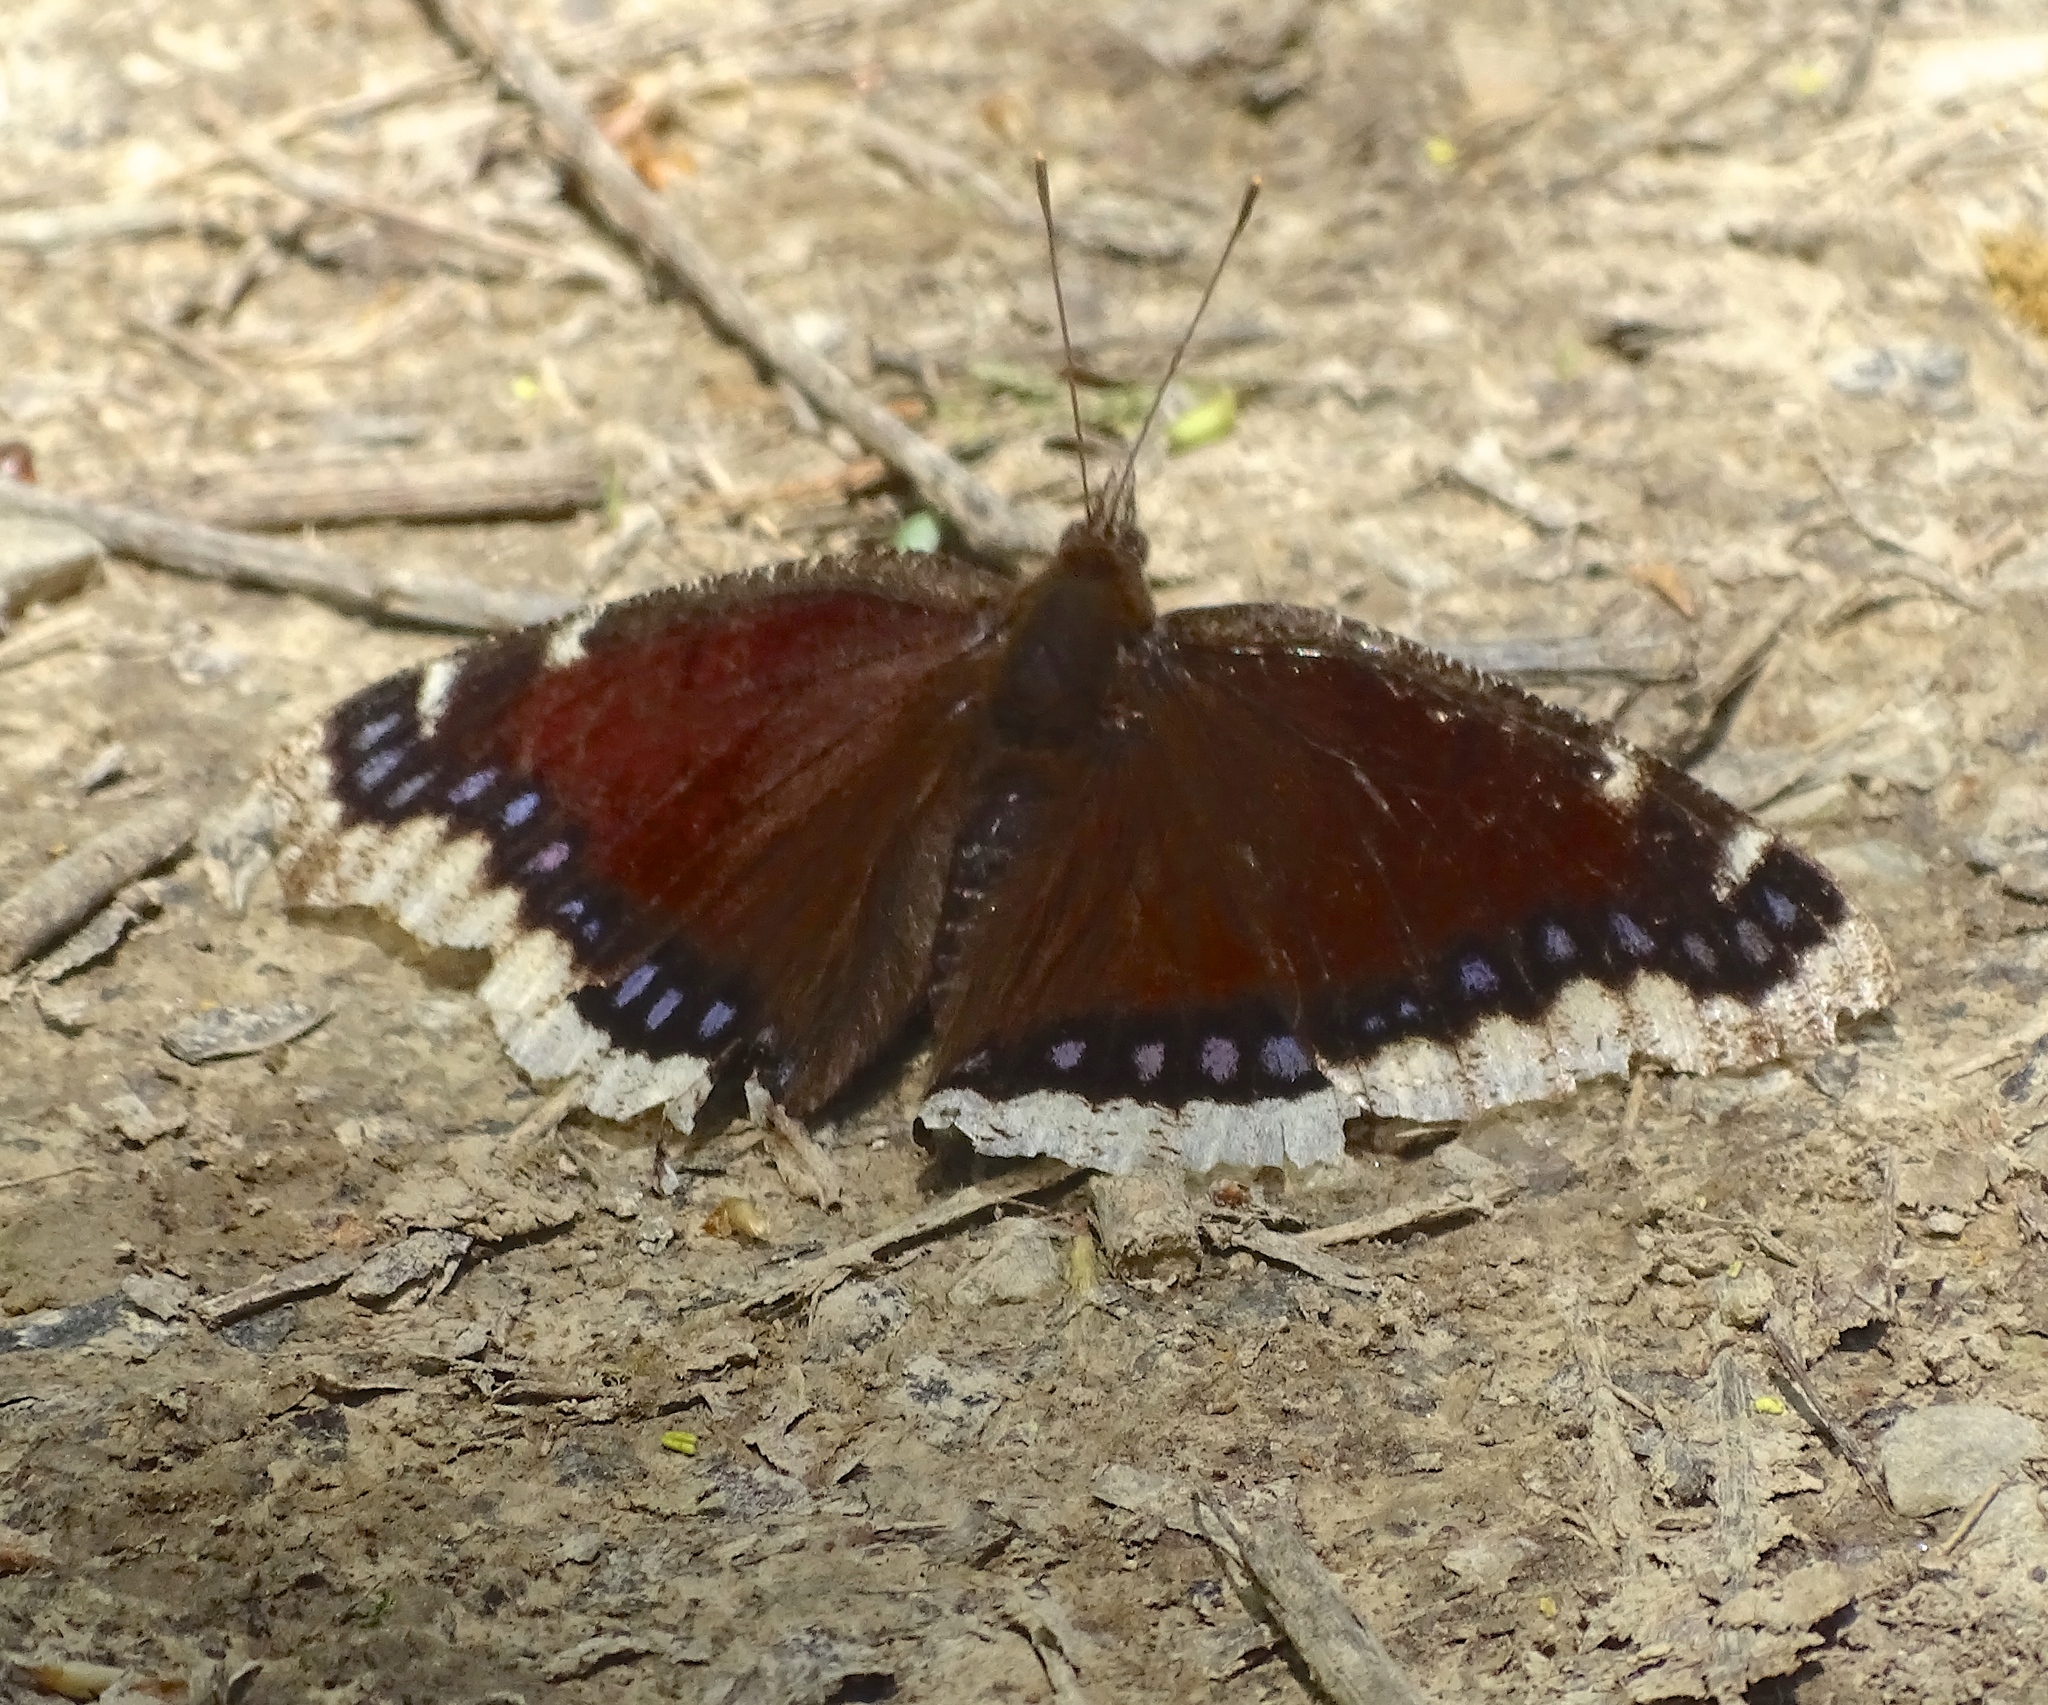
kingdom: Animalia
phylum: Arthropoda
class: Insecta
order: Lepidoptera
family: Nymphalidae
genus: Nymphalis
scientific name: Nymphalis antiopa
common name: Camberwell beauty
